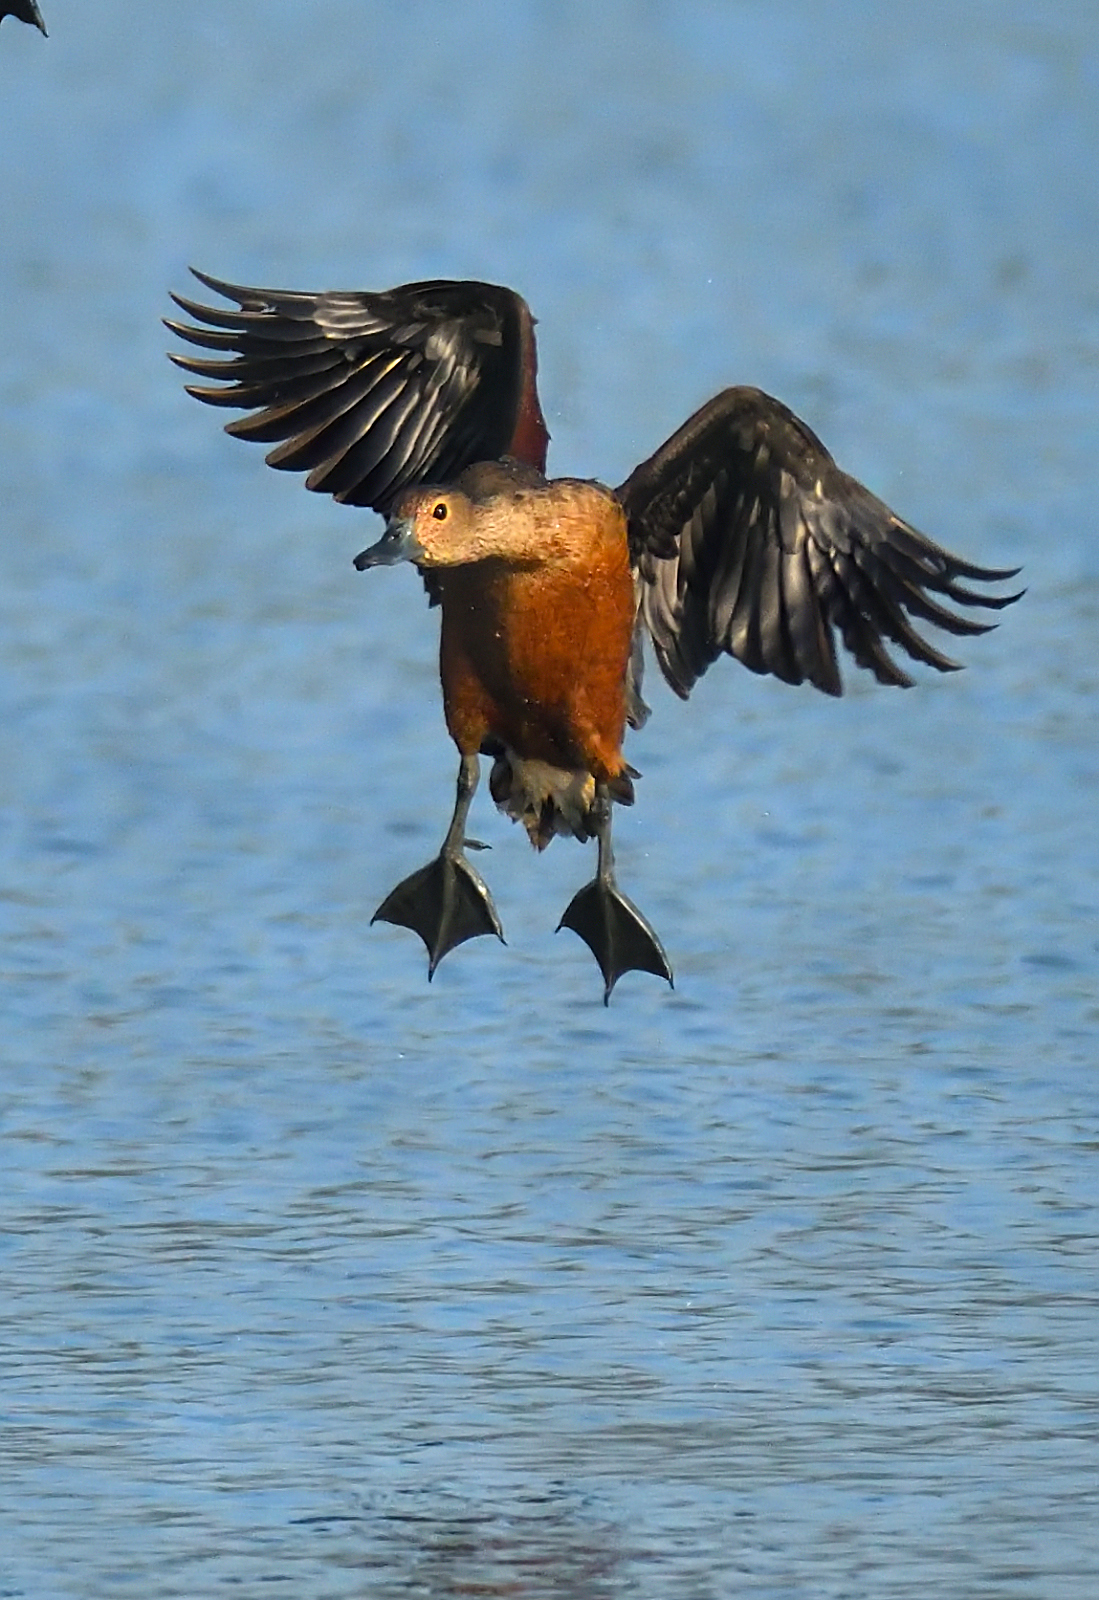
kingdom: Animalia
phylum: Chordata
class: Aves
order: Anseriformes
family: Anatidae
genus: Dendrocygna
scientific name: Dendrocygna javanica
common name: Lesser whistling-duck
